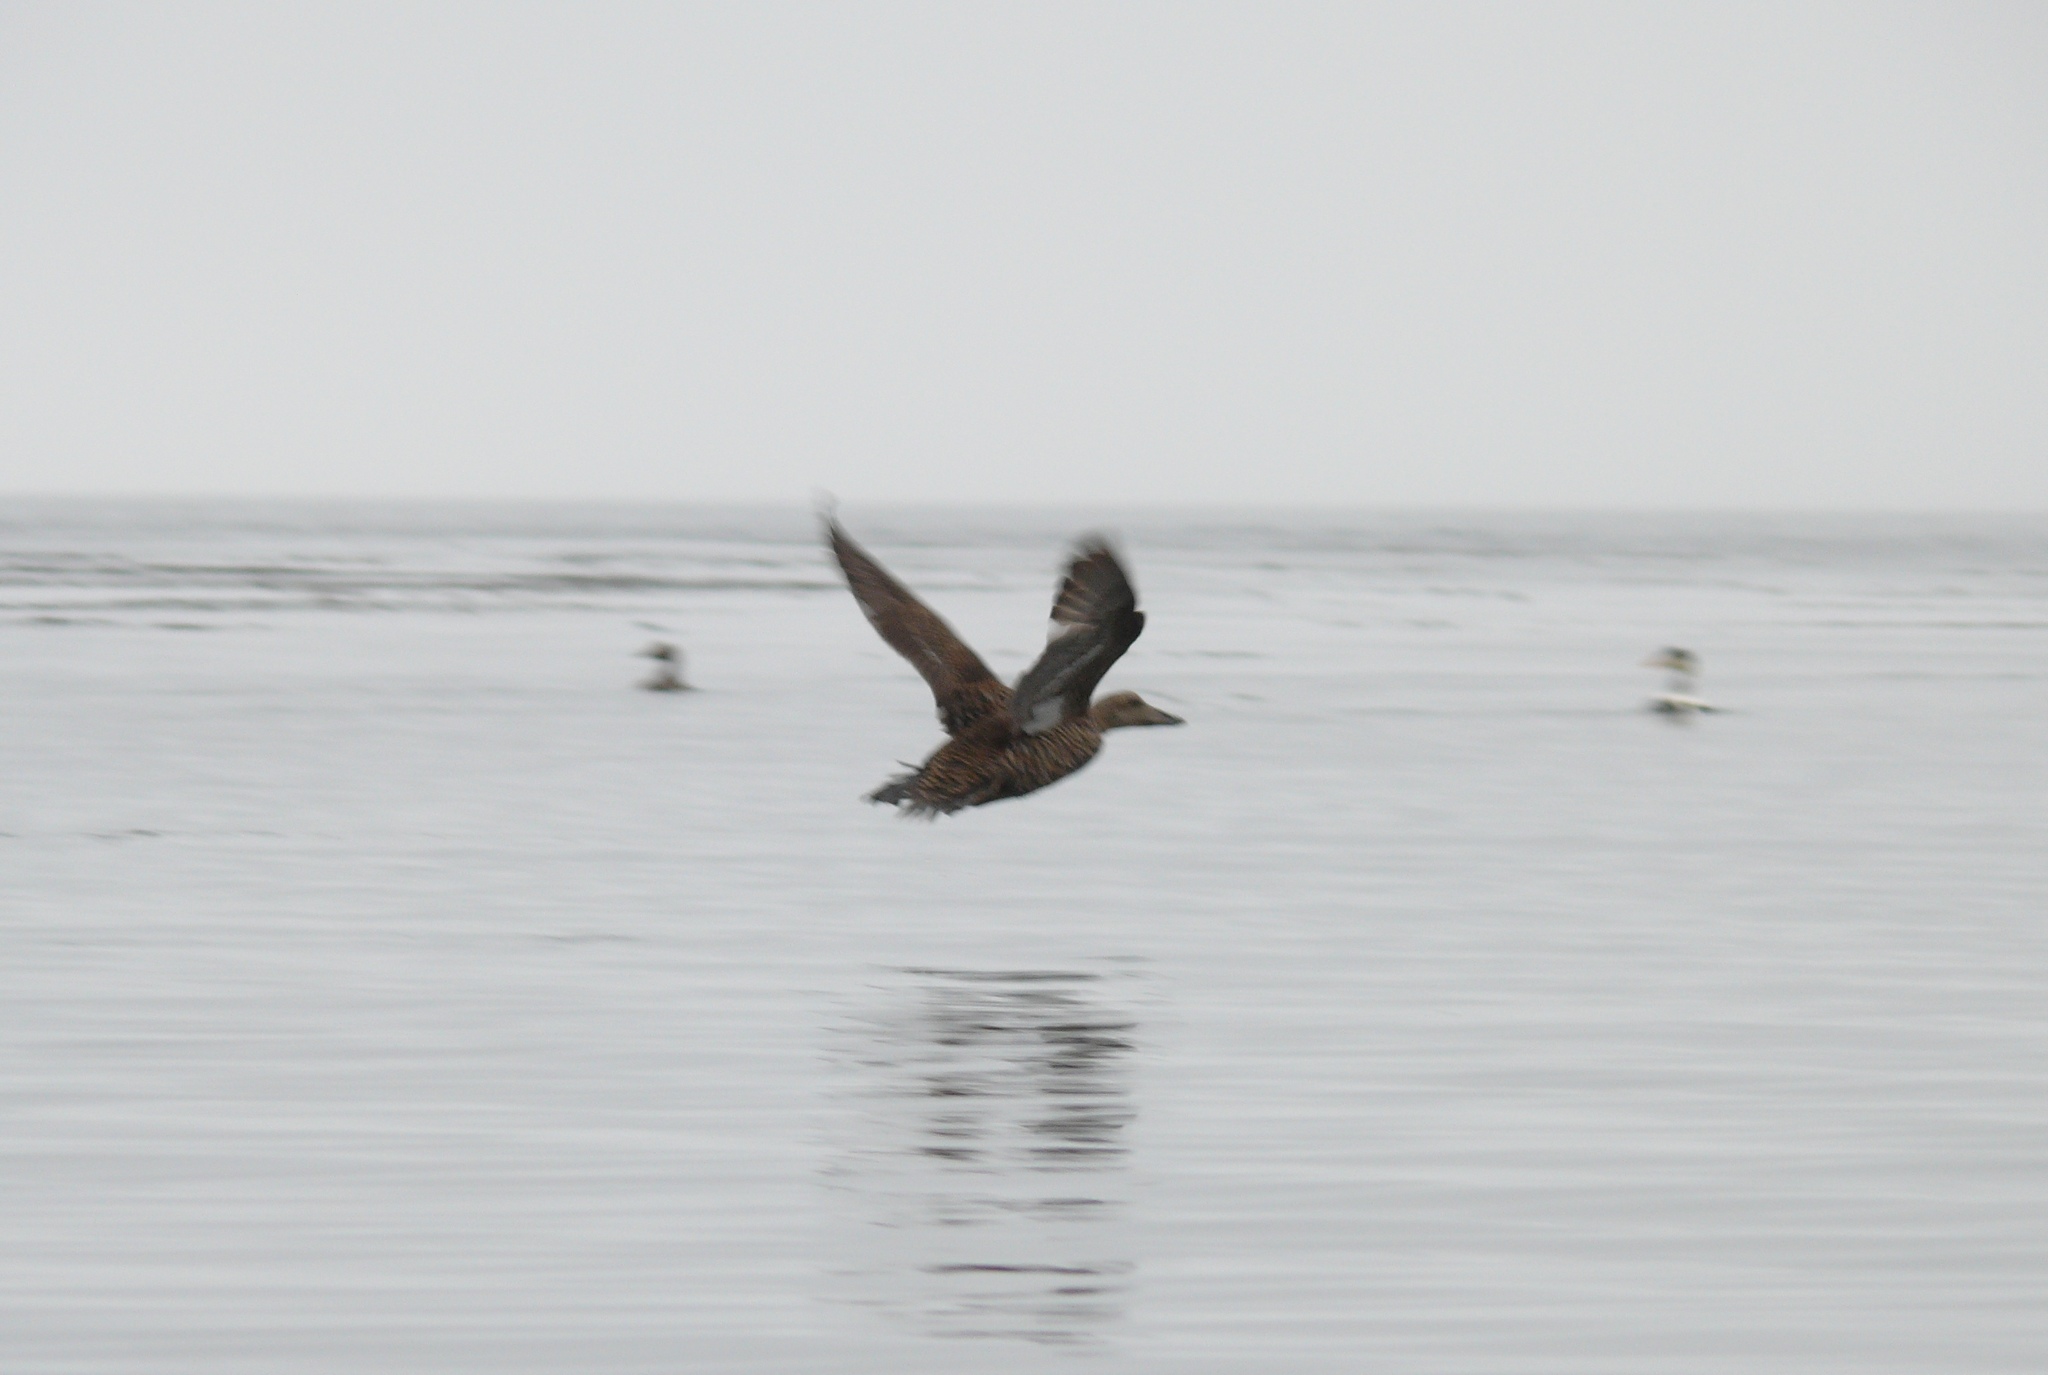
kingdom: Animalia
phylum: Chordata
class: Aves
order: Anseriformes
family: Anatidae
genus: Somateria
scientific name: Somateria mollissima
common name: Common eider
